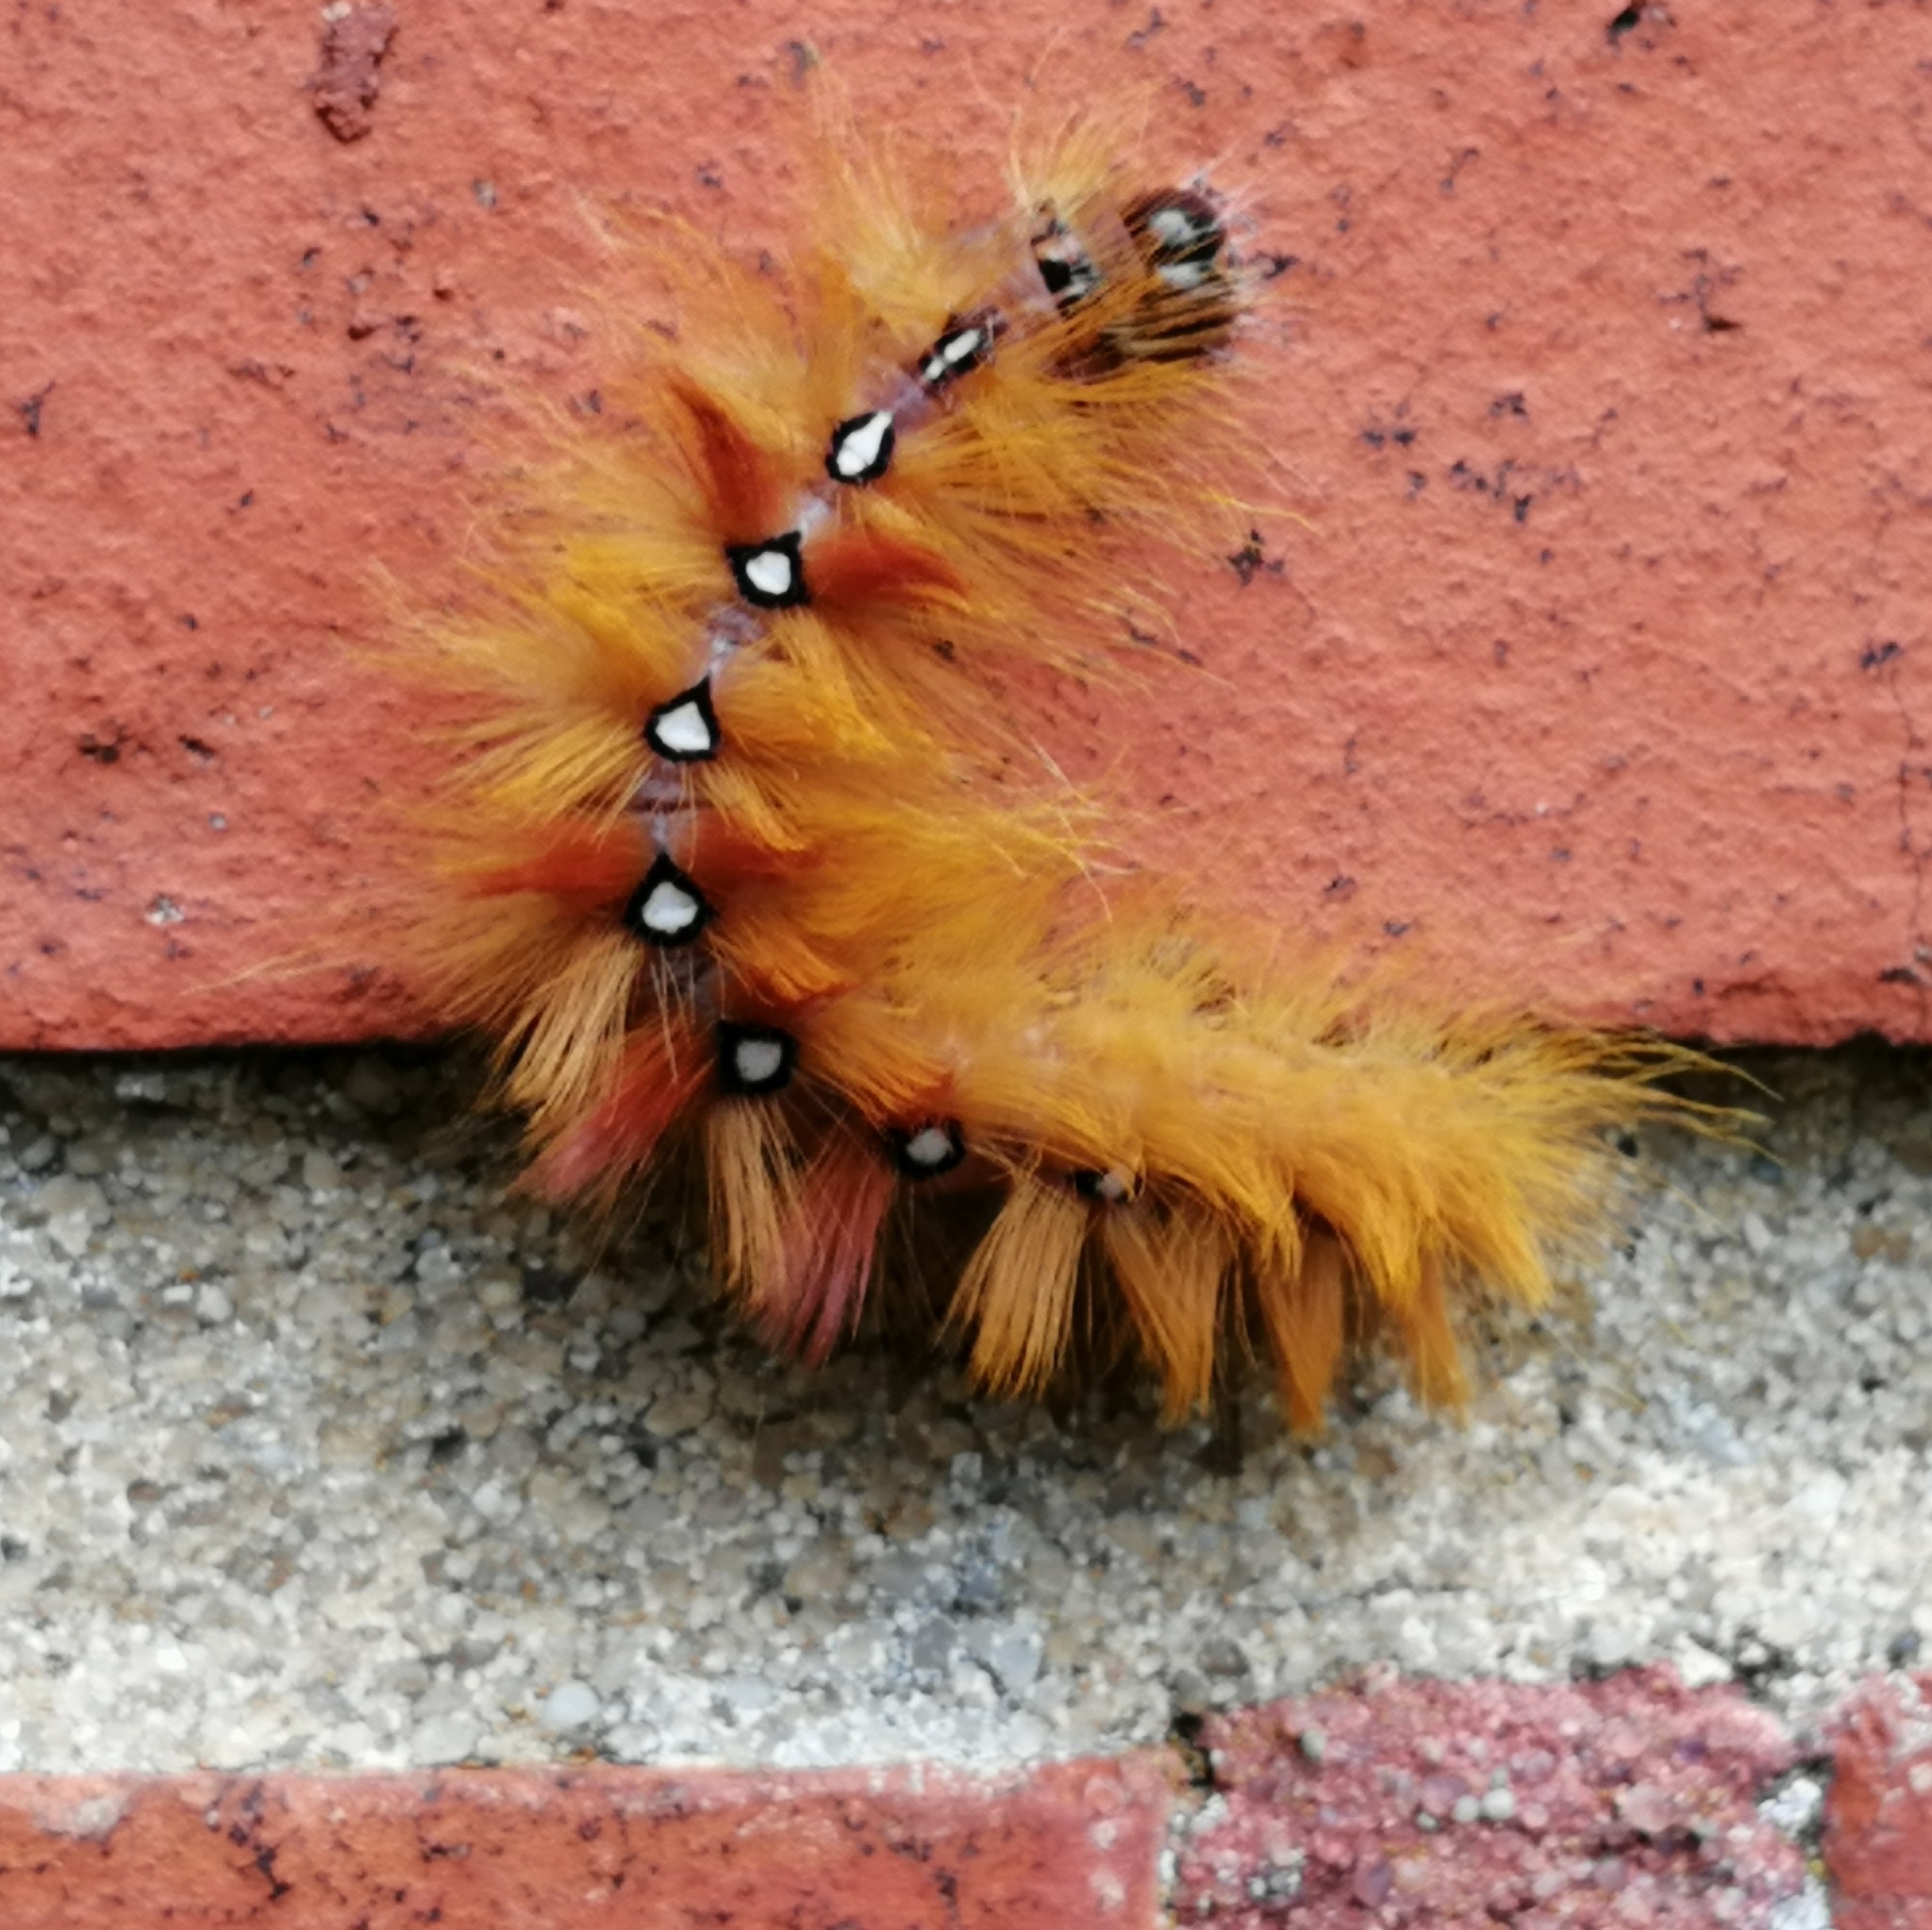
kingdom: Animalia
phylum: Arthropoda
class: Insecta
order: Lepidoptera
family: Noctuidae
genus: Acronicta
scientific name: Acronicta aceris
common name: Sycamore
